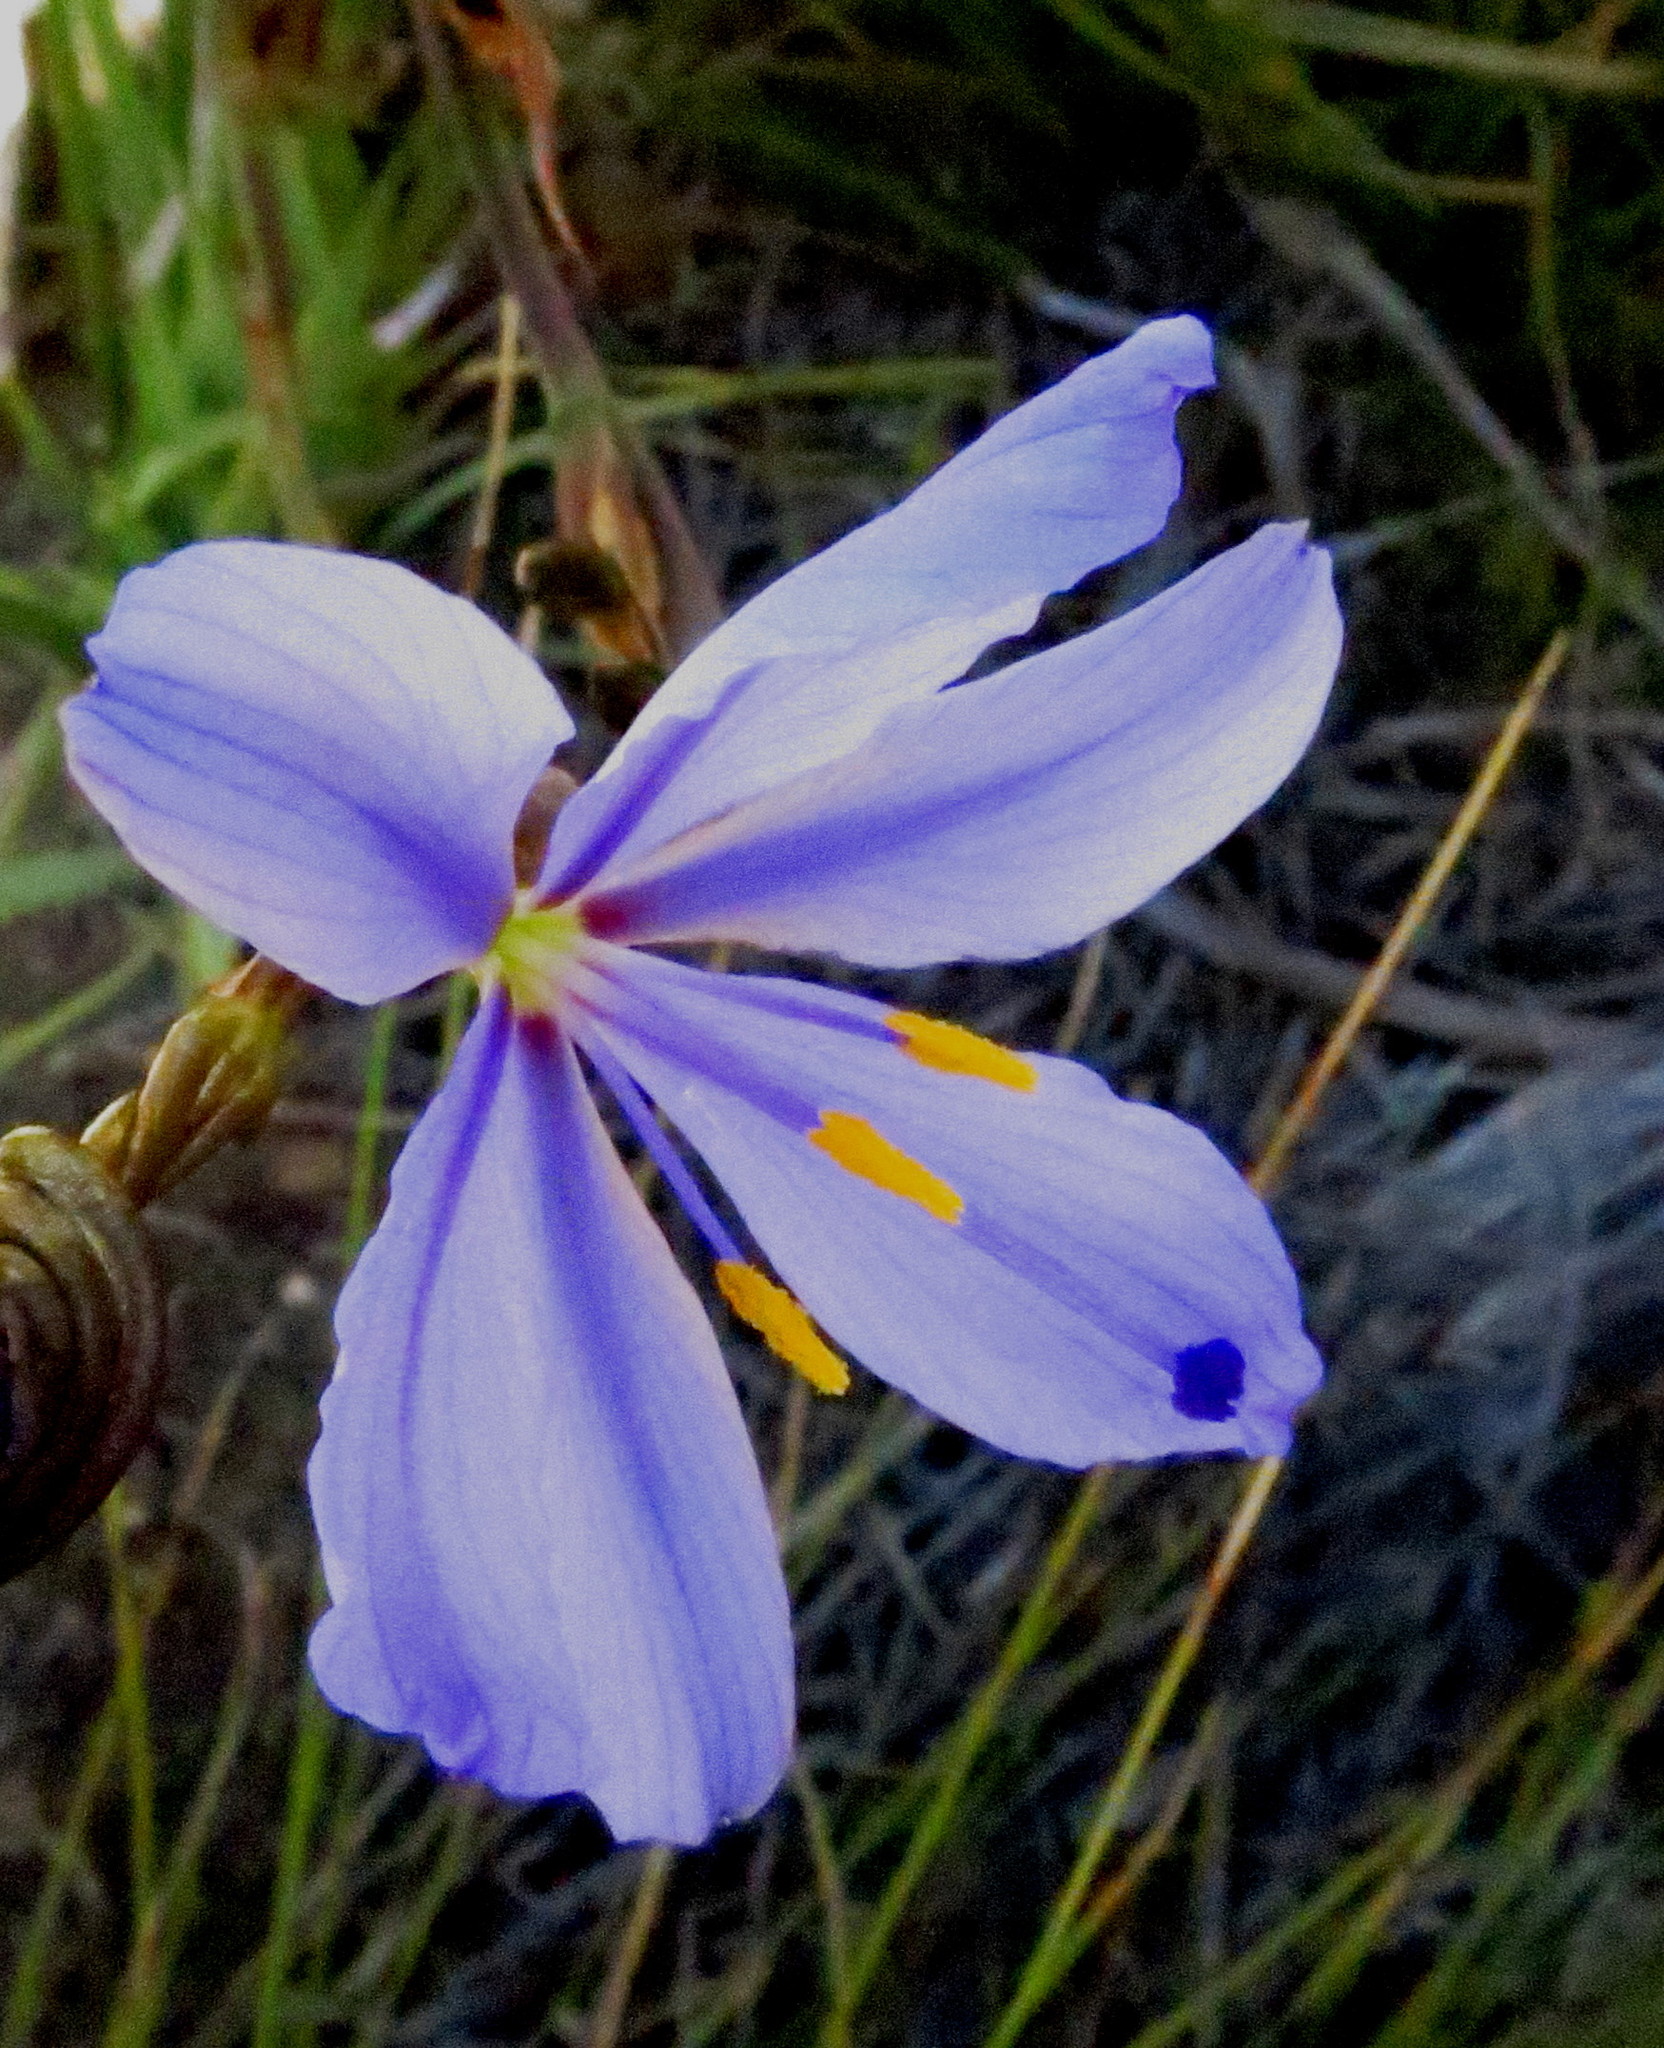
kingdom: Plantae
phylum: Tracheophyta
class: Liliopsida
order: Asparagales
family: Iridaceae
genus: Aristea
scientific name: Aristea spiralis
